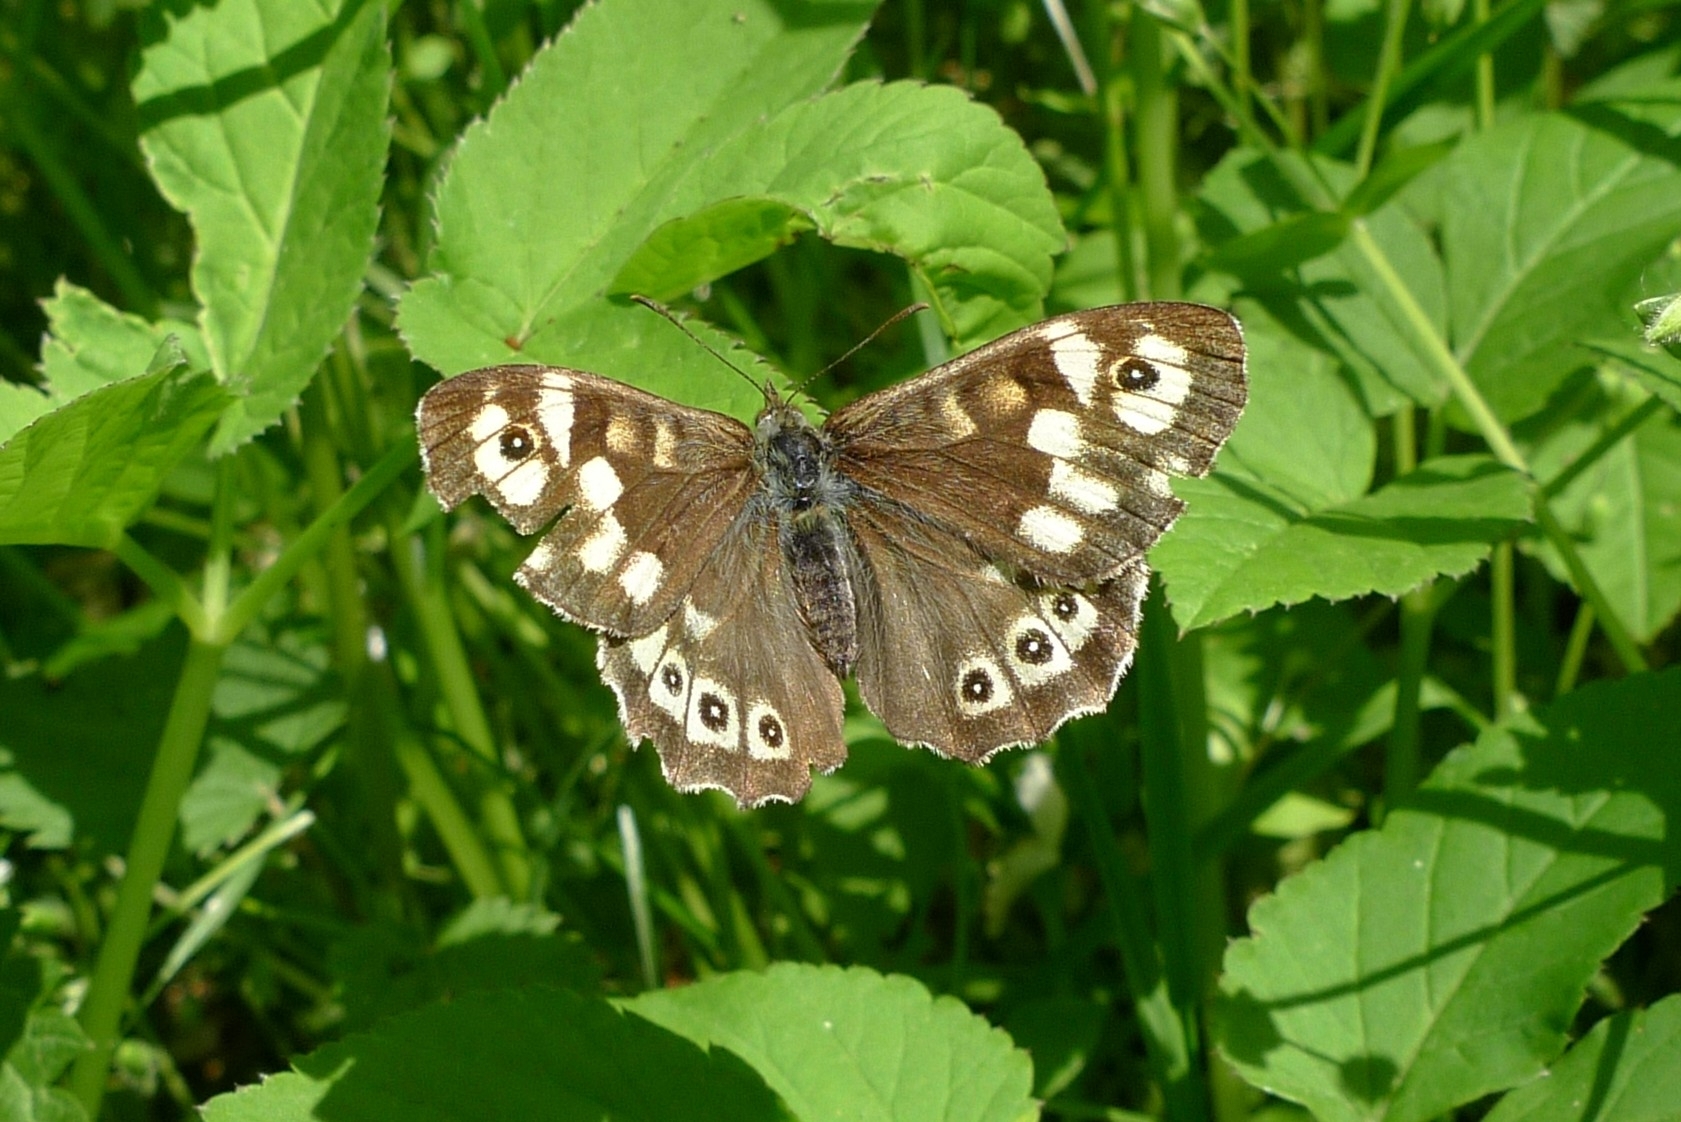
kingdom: Animalia
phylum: Arthropoda
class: Insecta
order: Lepidoptera
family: Nymphalidae
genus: Pararge
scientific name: Pararge aegeria
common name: Speckled wood
